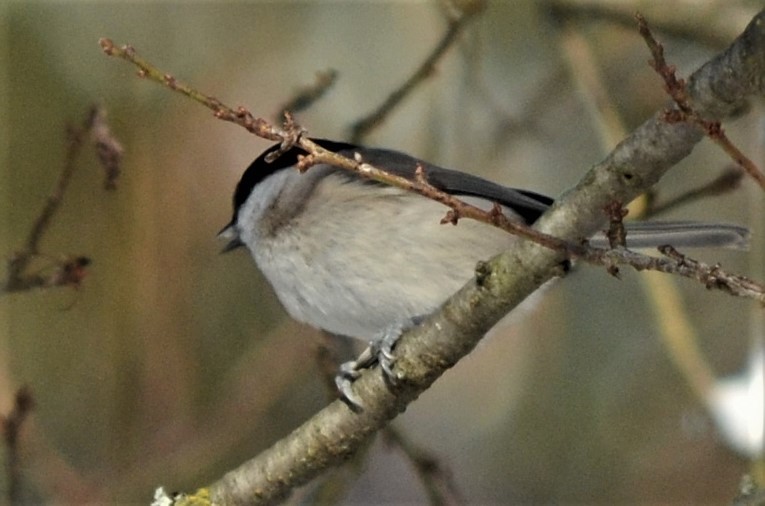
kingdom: Animalia
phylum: Chordata
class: Aves
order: Passeriformes
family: Paridae
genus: Poecile
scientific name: Poecile palustris
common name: Marsh tit
